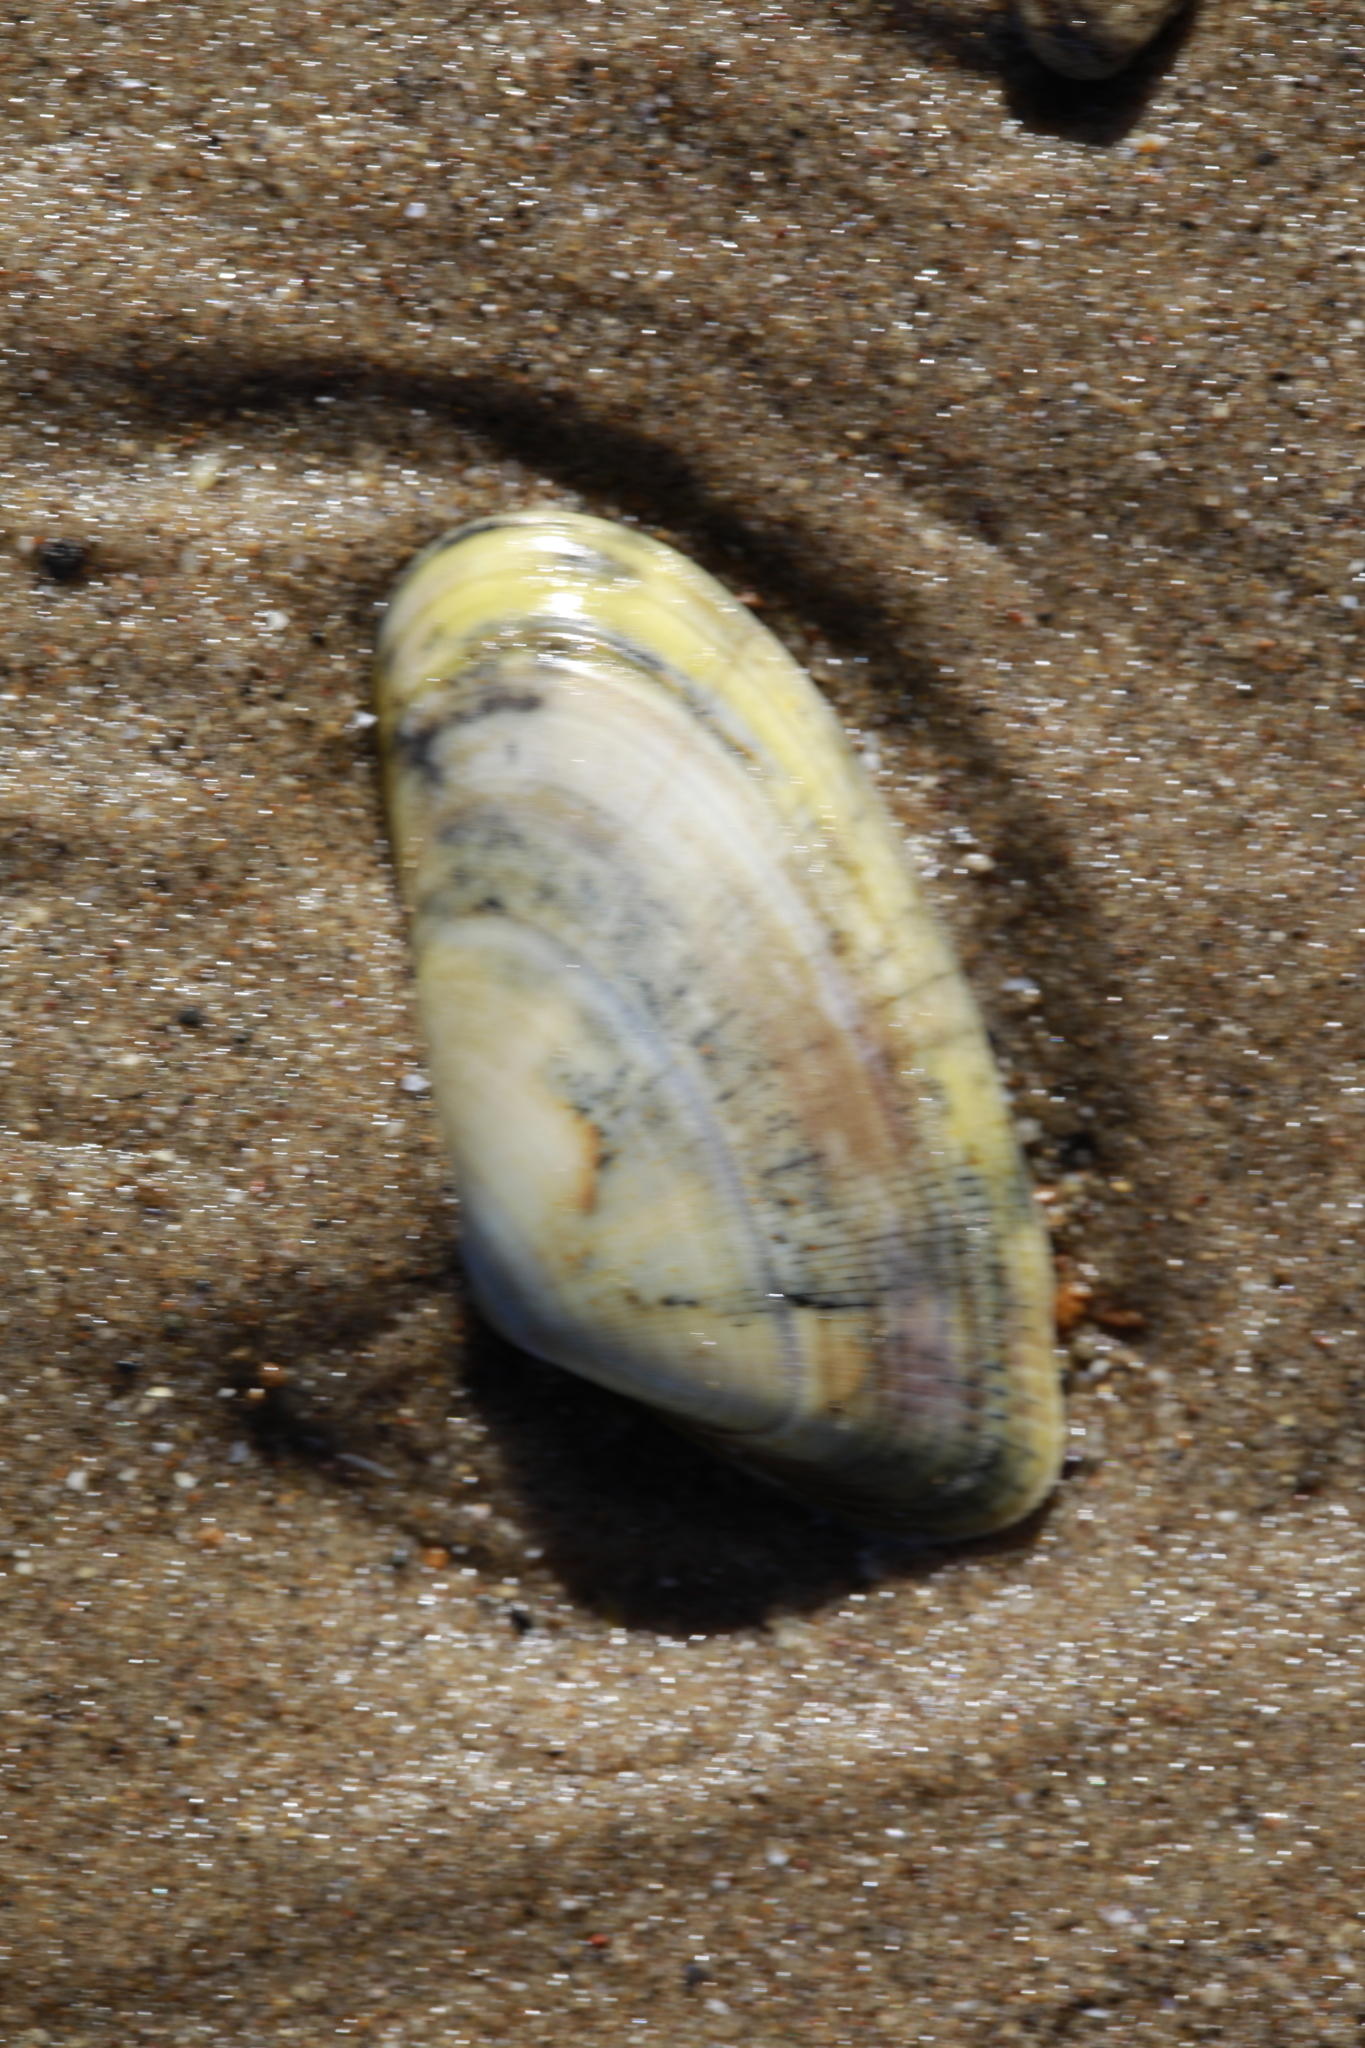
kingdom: Animalia
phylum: Mollusca
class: Bivalvia
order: Cardiida
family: Donacidae
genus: Donax
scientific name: Donax vittatus
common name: Banded wedge-shell
